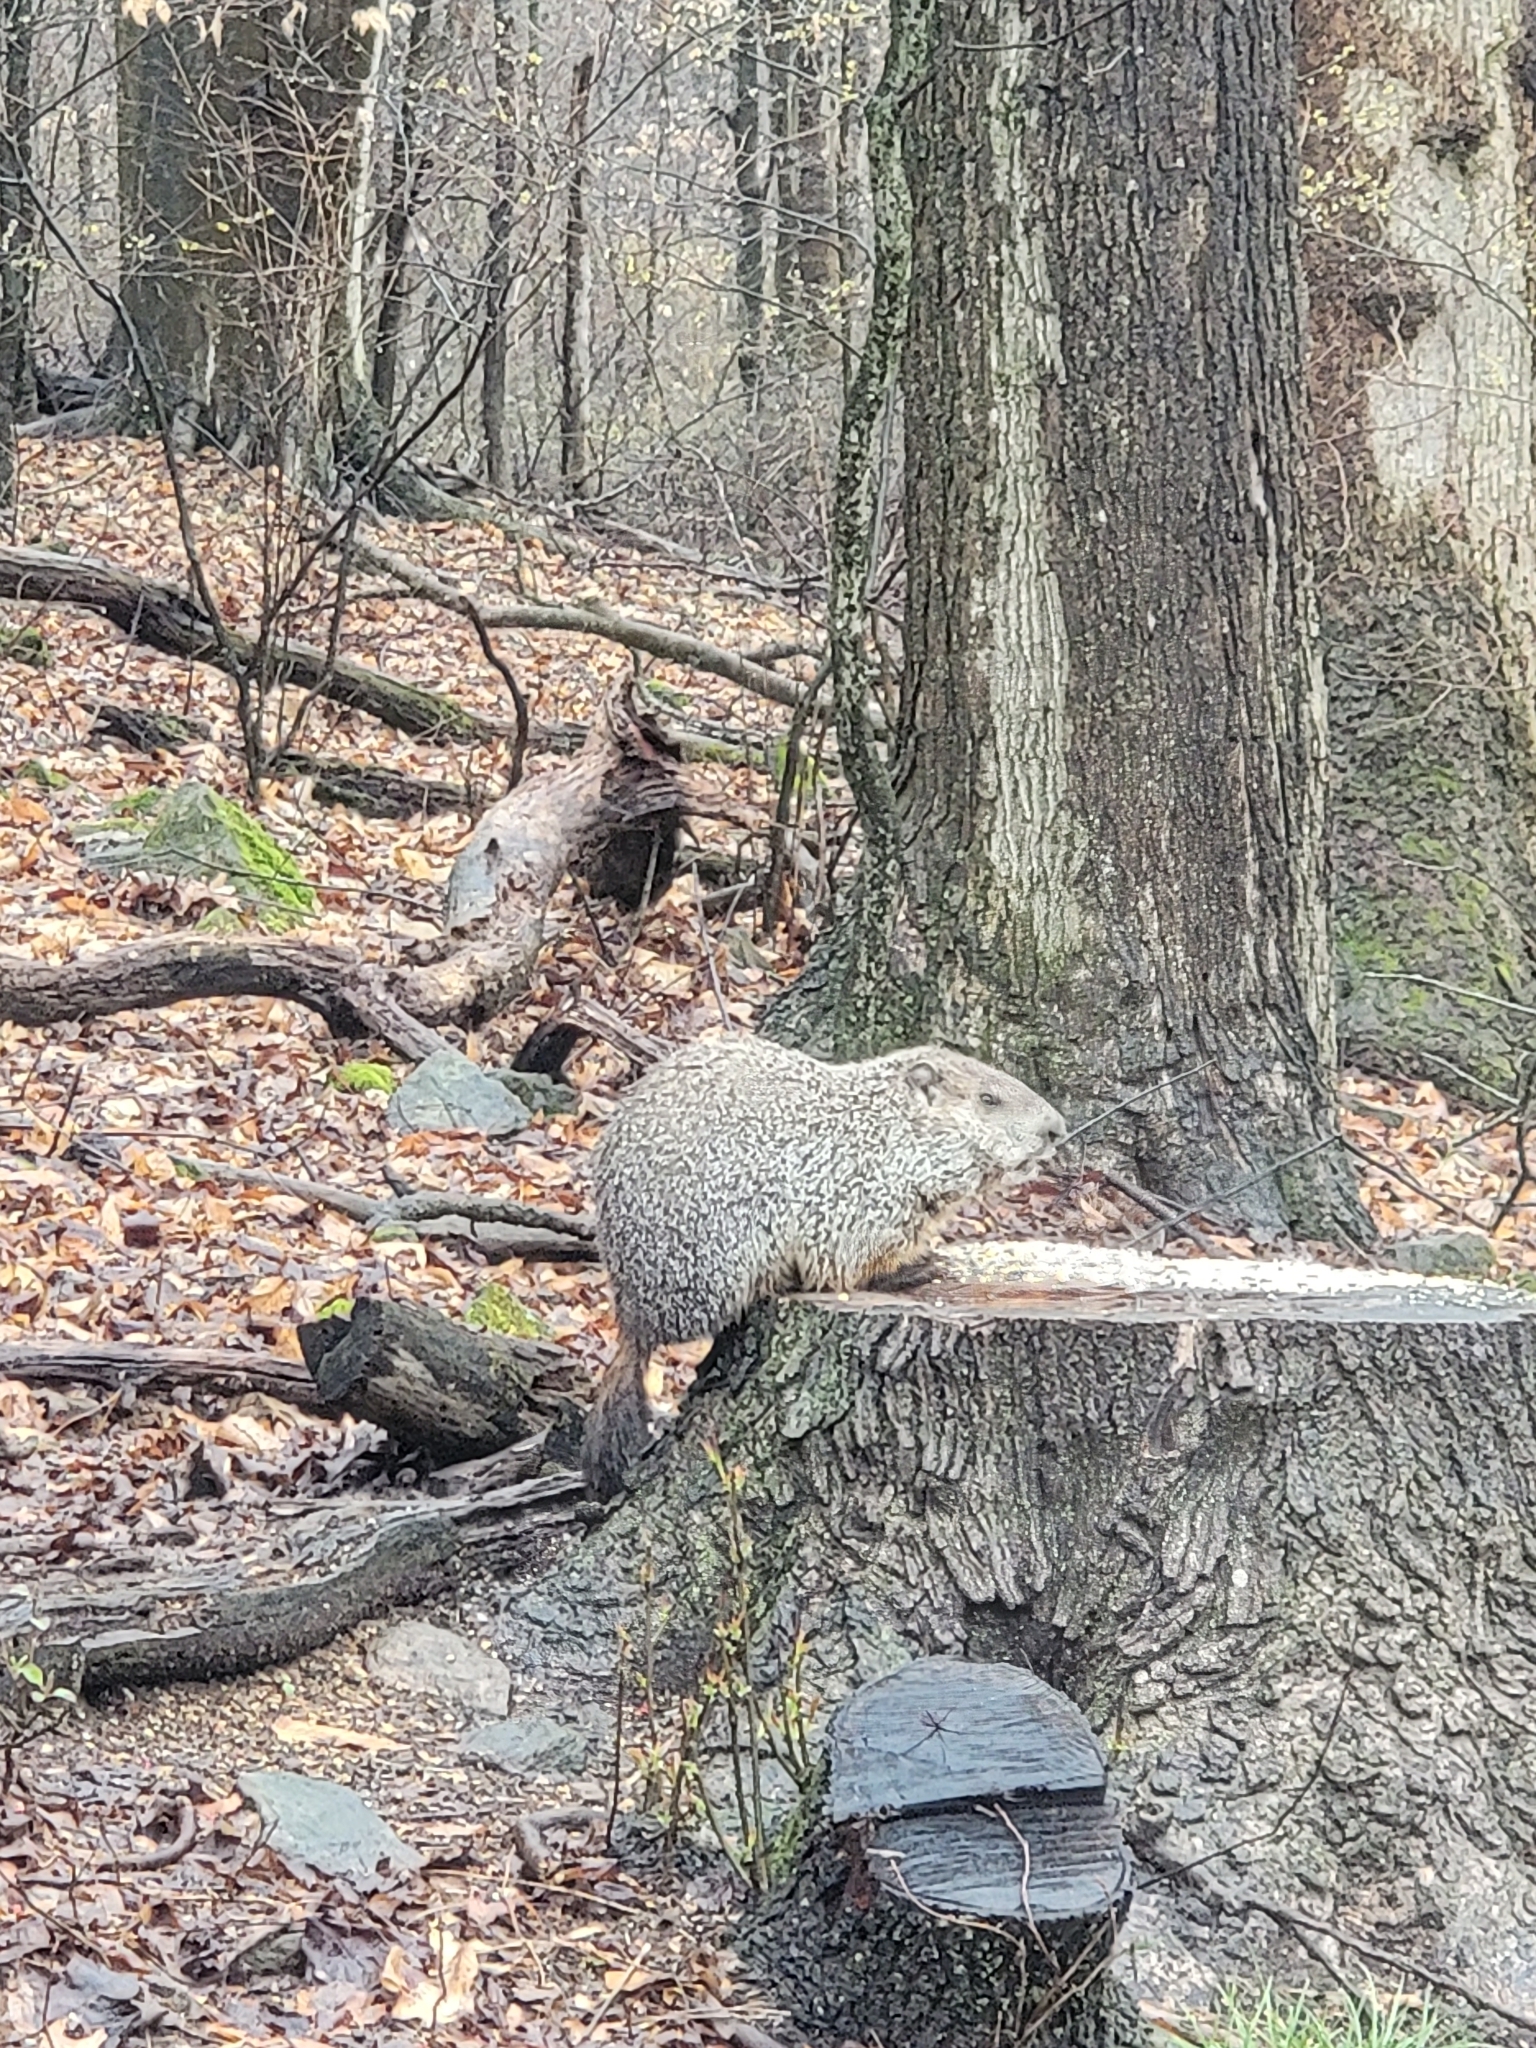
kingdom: Animalia
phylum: Chordata
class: Mammalia
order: Rodentia
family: Sciuridae
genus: Marmota
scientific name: Marmota monax
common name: Groundhog
